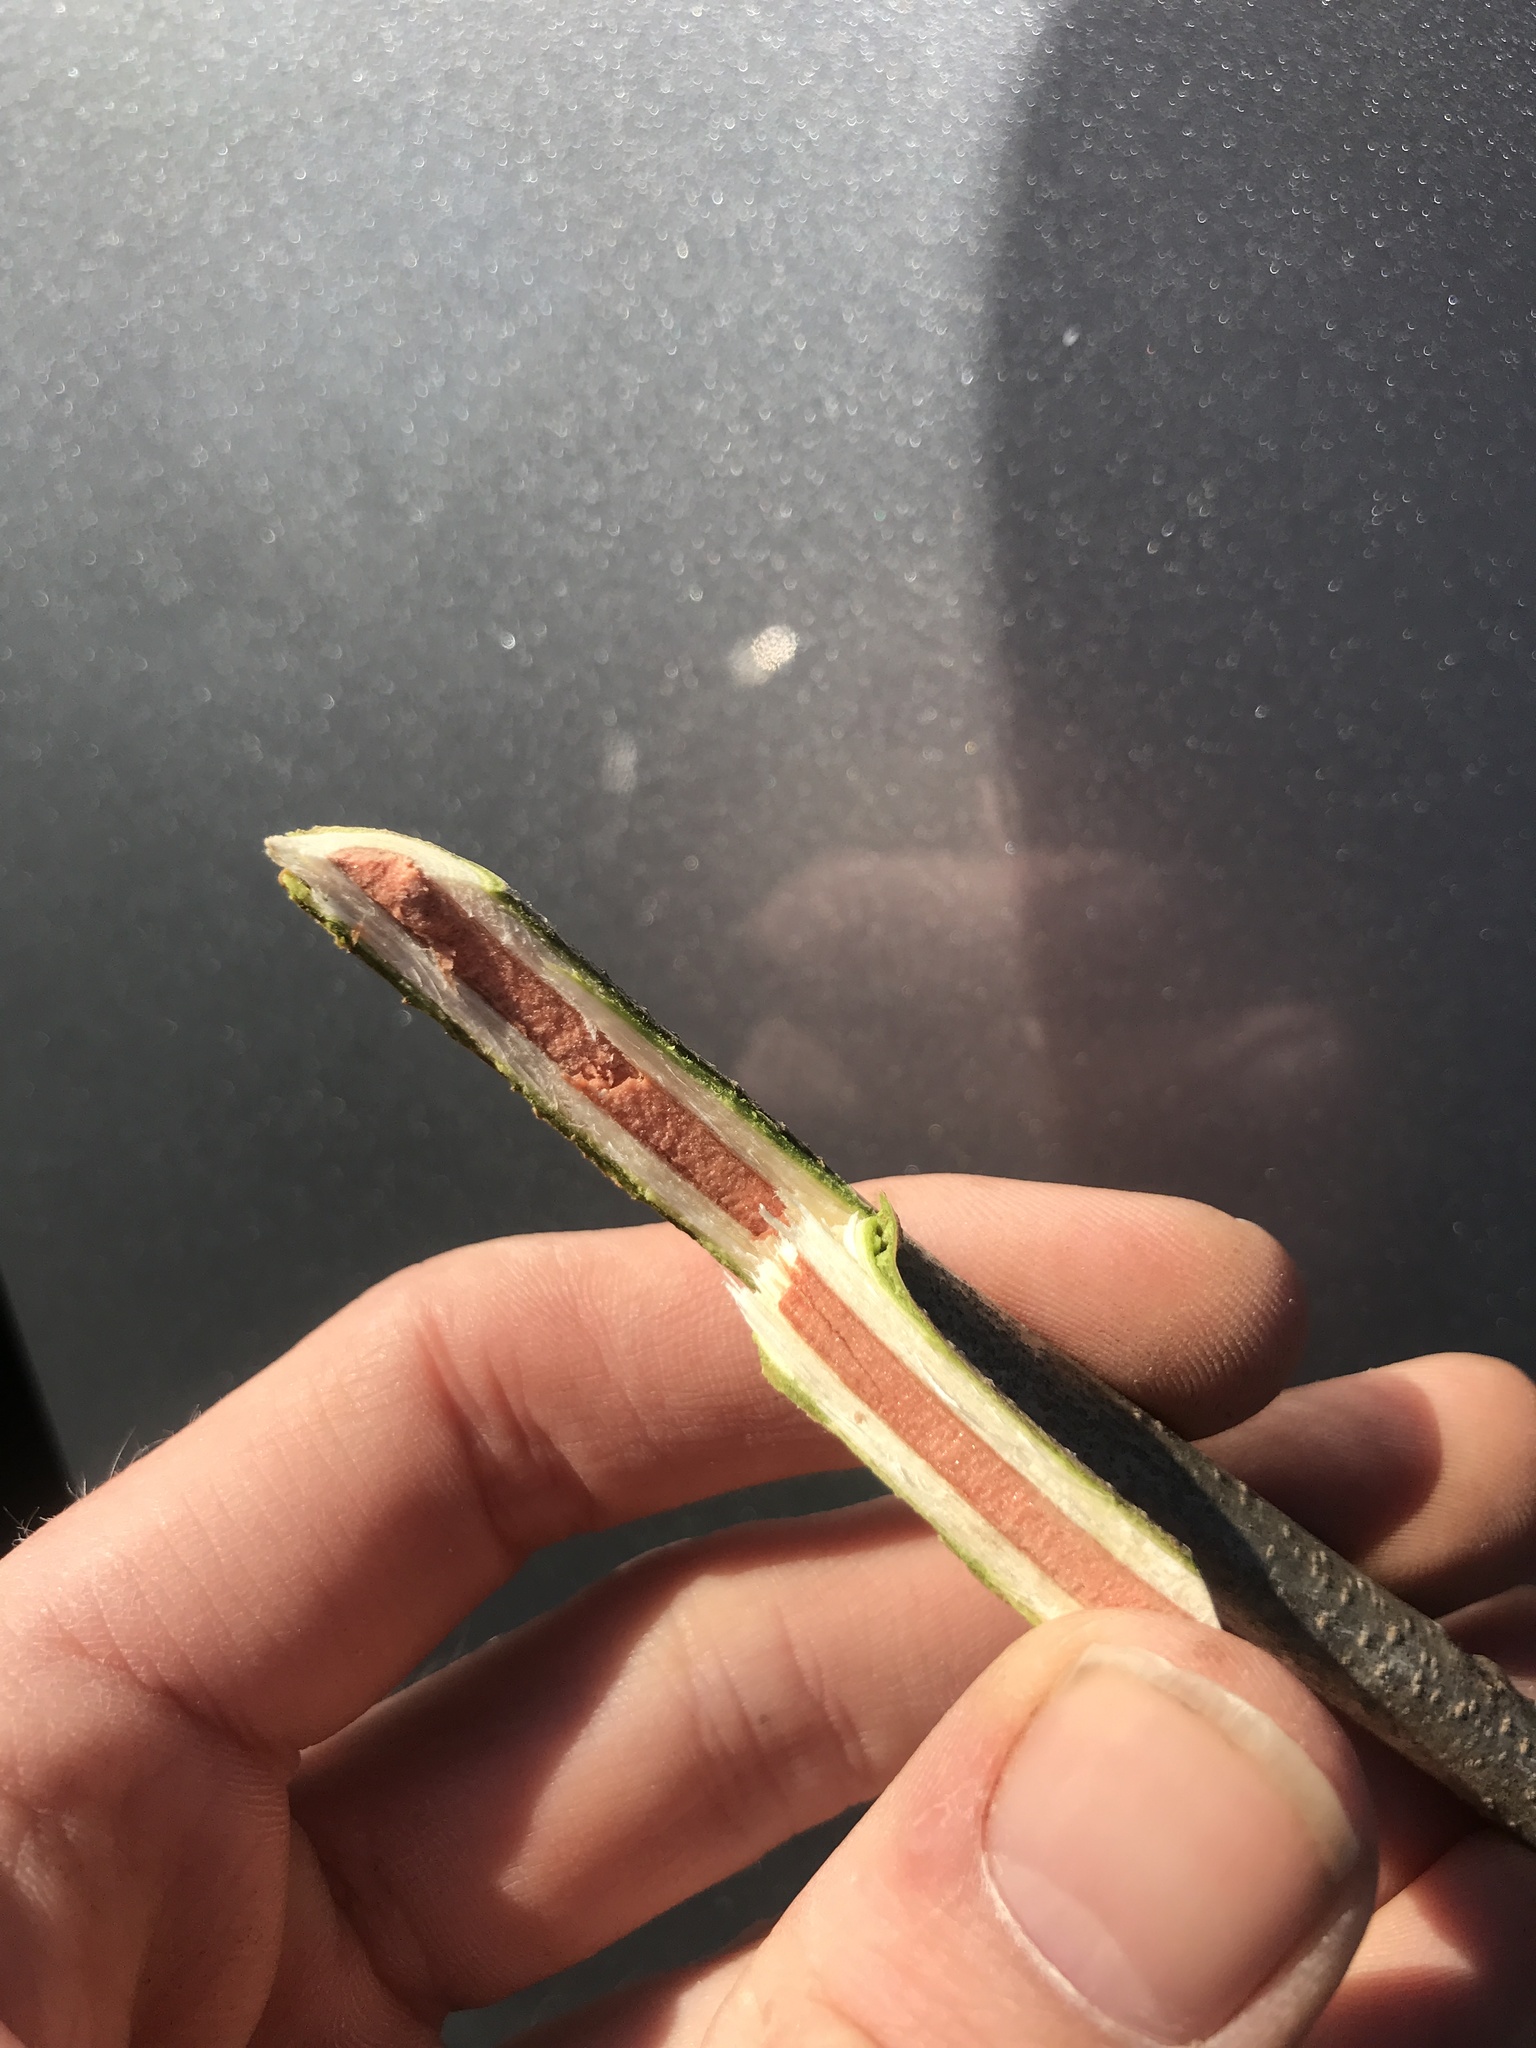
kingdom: Plantae
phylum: Tracheophyta
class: Magnoliopsida
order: Fabales
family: Fabaceae
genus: Gymnocladus
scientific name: Gymnocladus dioicus
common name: Kentucky coffee-tree
